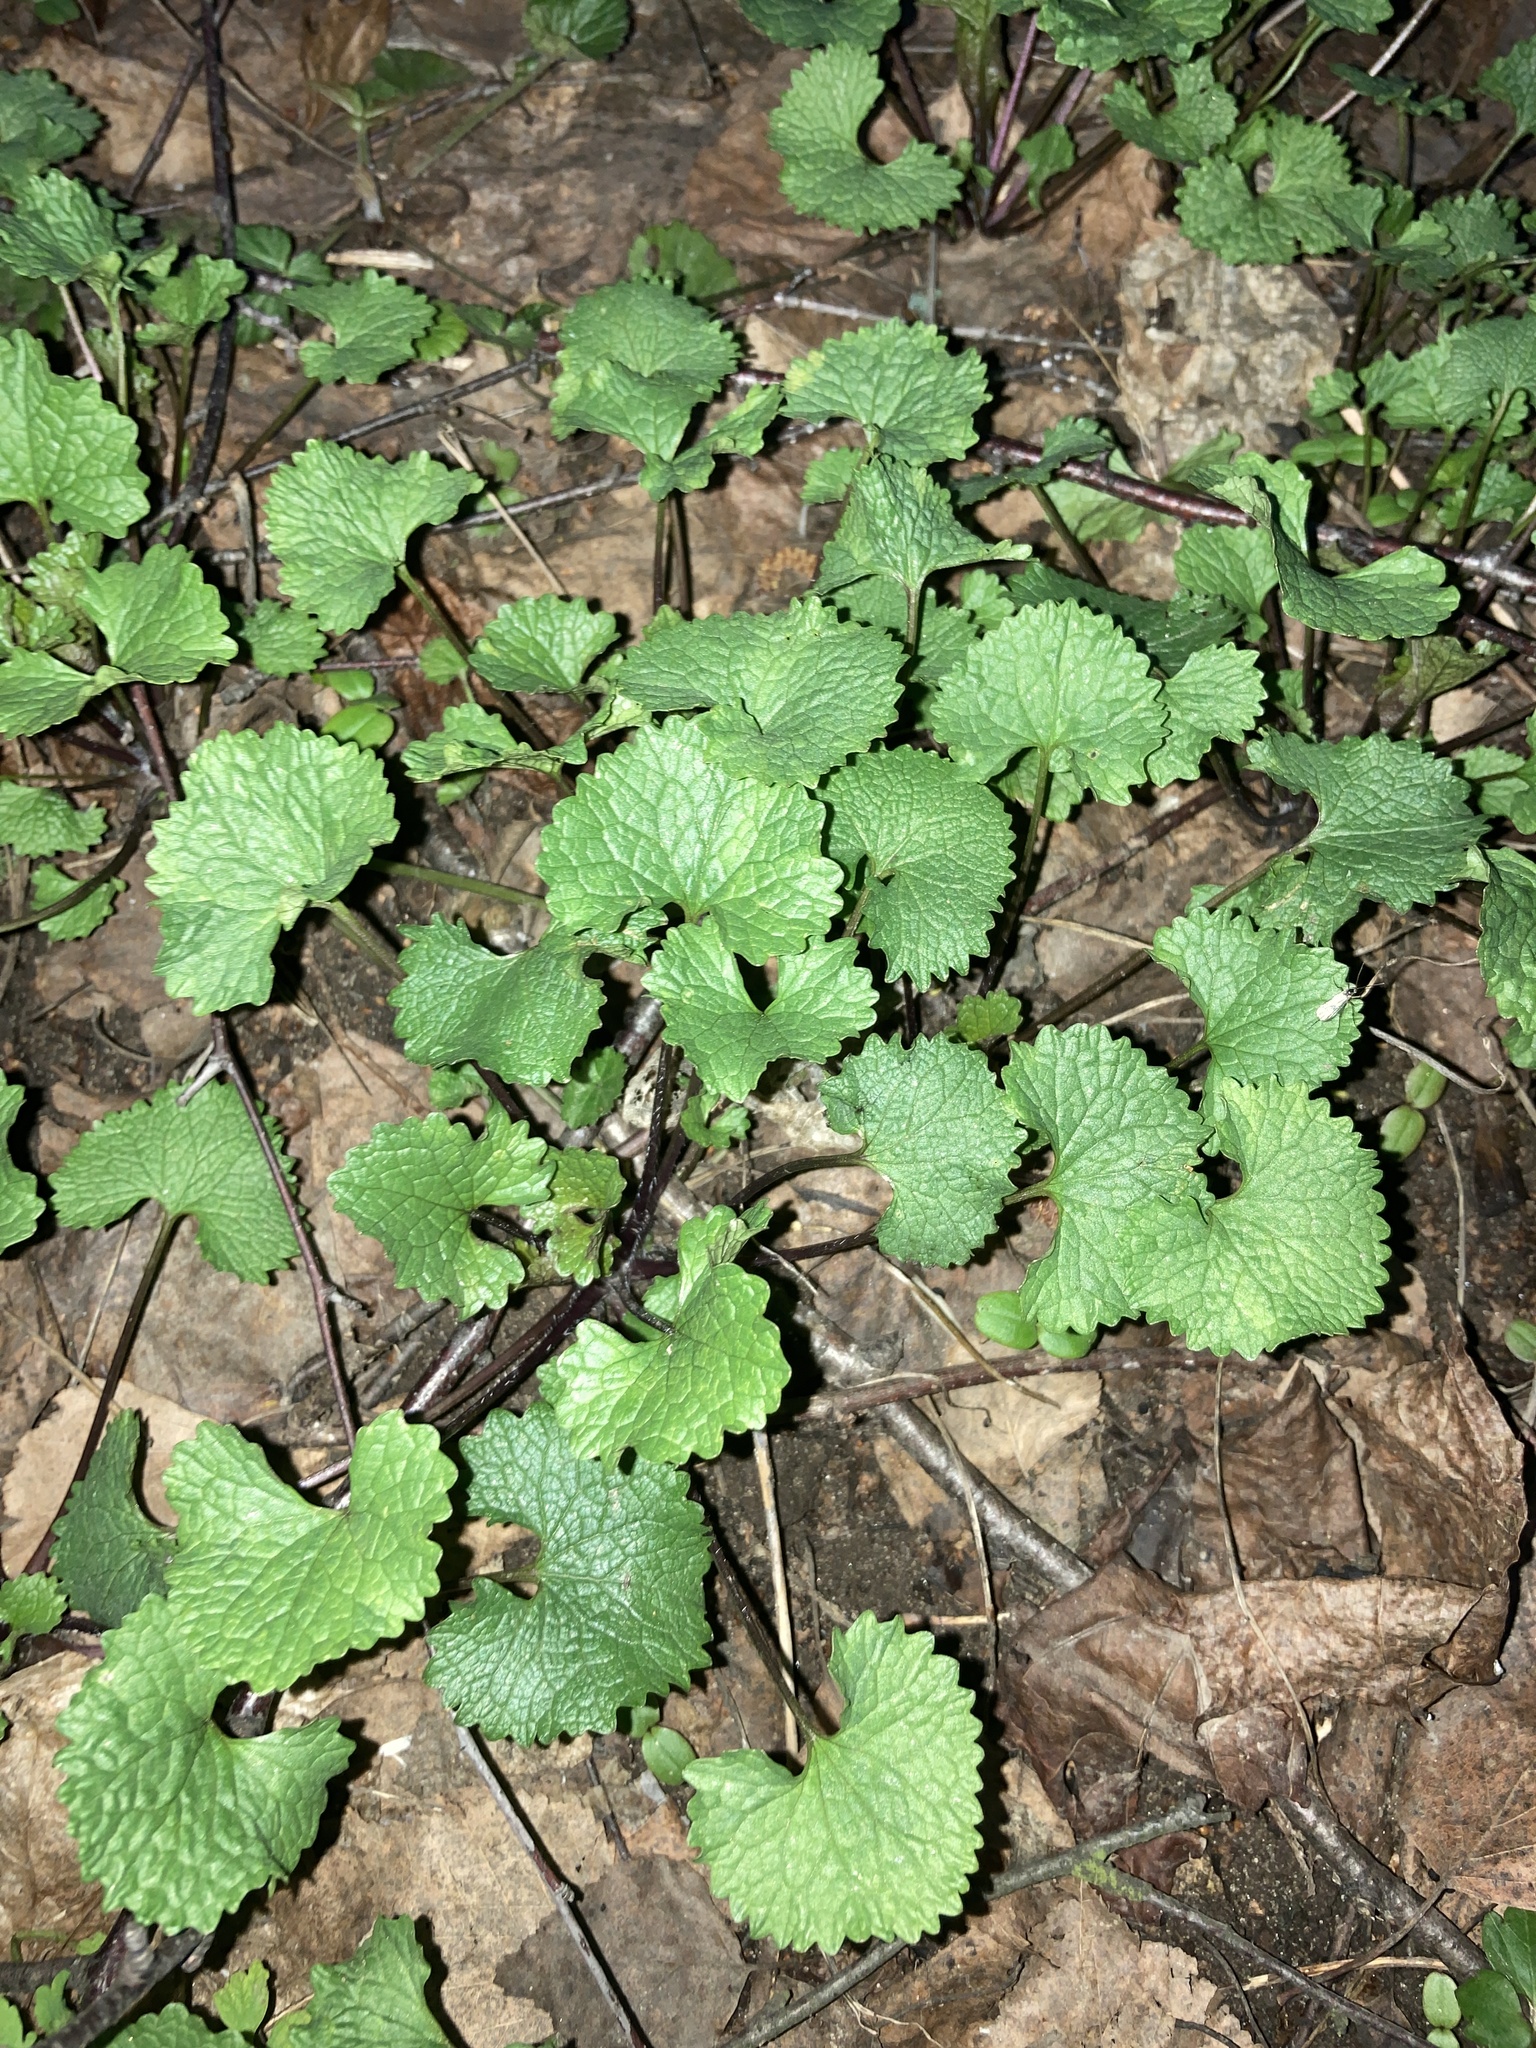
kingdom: Plantae
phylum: Tracheophyta
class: Magnoliopsida
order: Brassicales
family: Brassicaceae
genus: Alliaria
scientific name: Alliaria petiolata
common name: Garlic mustard
